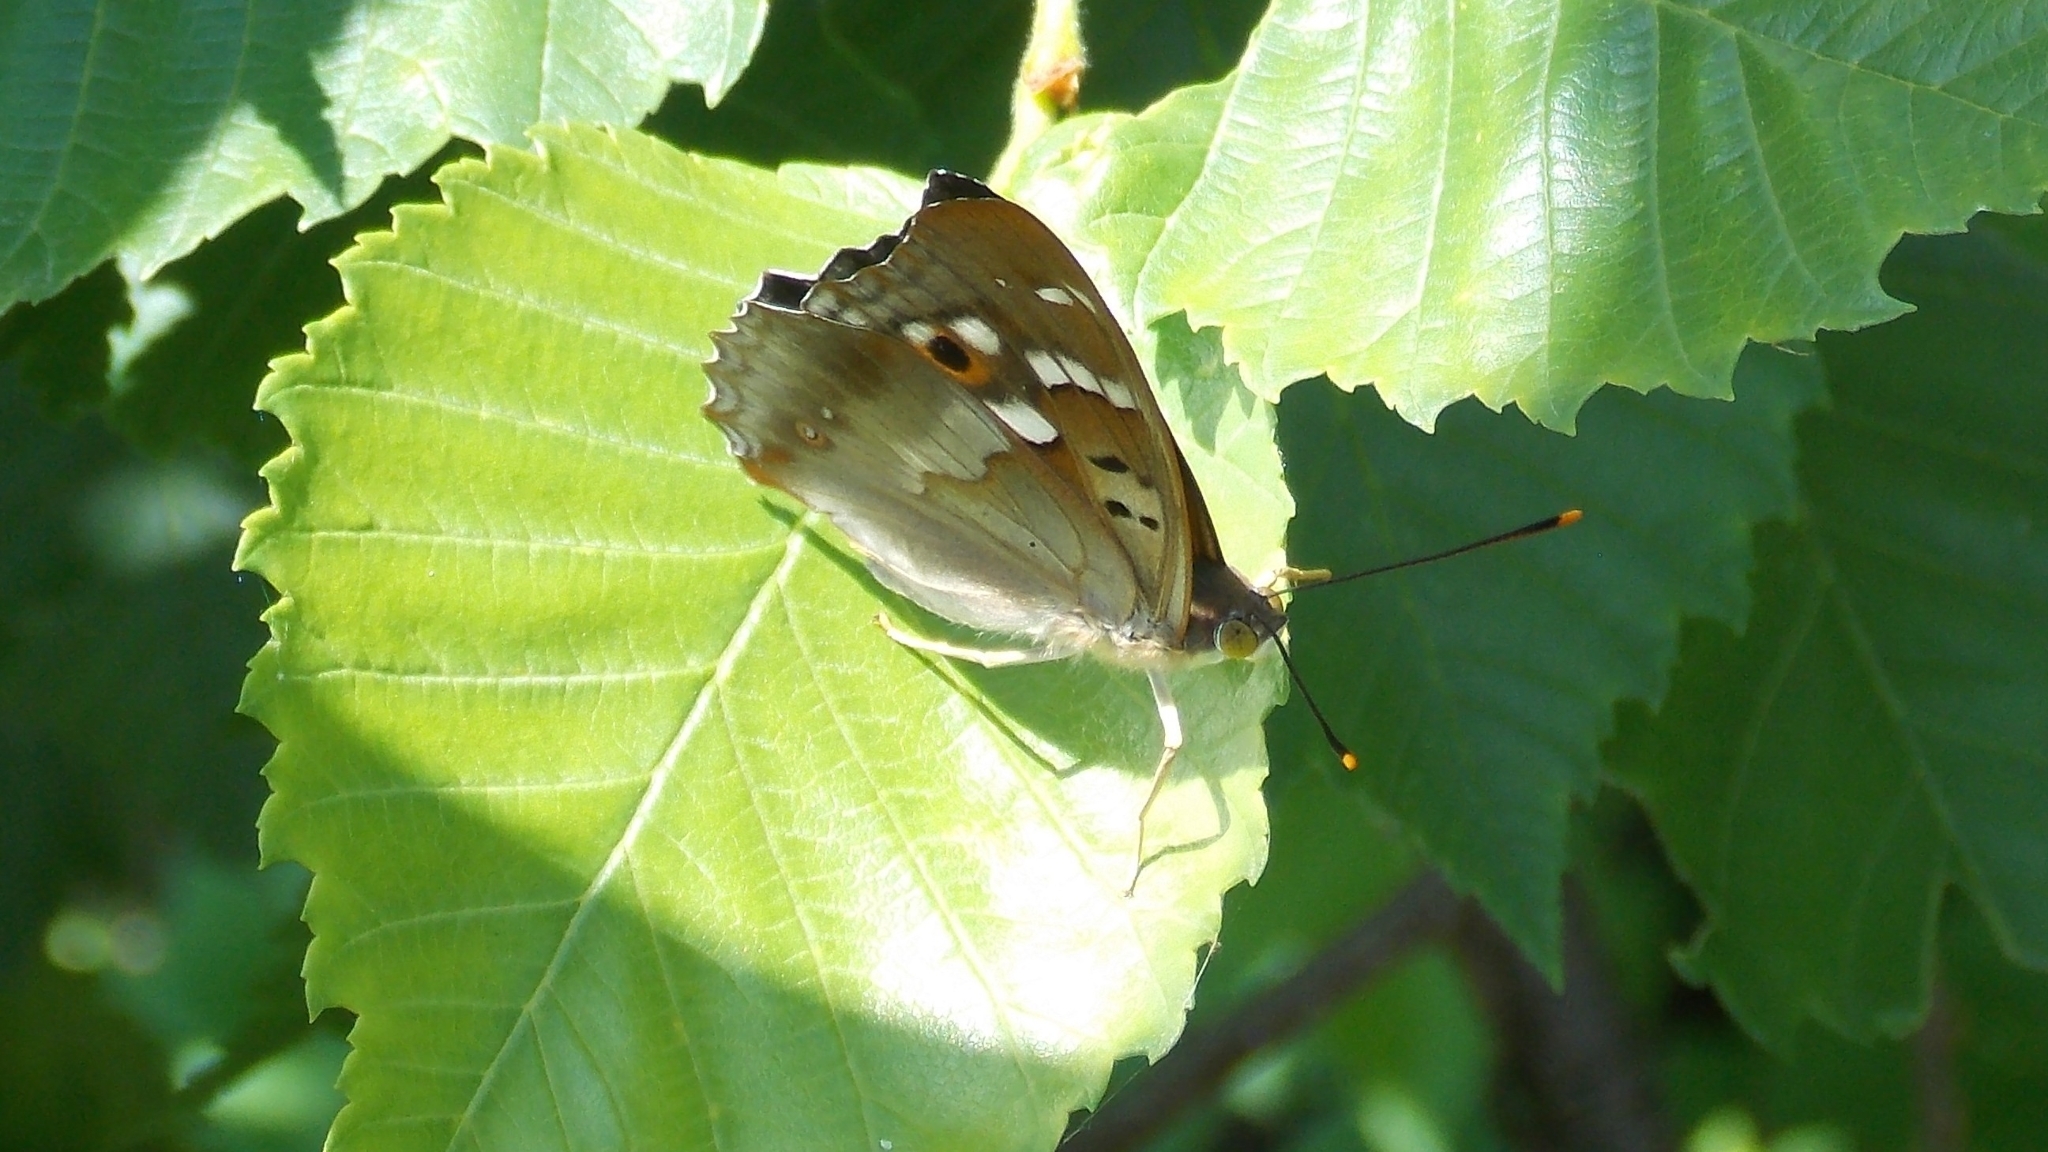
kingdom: Animalia
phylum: Arthropoda
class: Insecta
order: Lepidoptera
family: Nymphalidae
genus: Apatura
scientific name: Apatura ilia
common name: Lesser purple emperor
